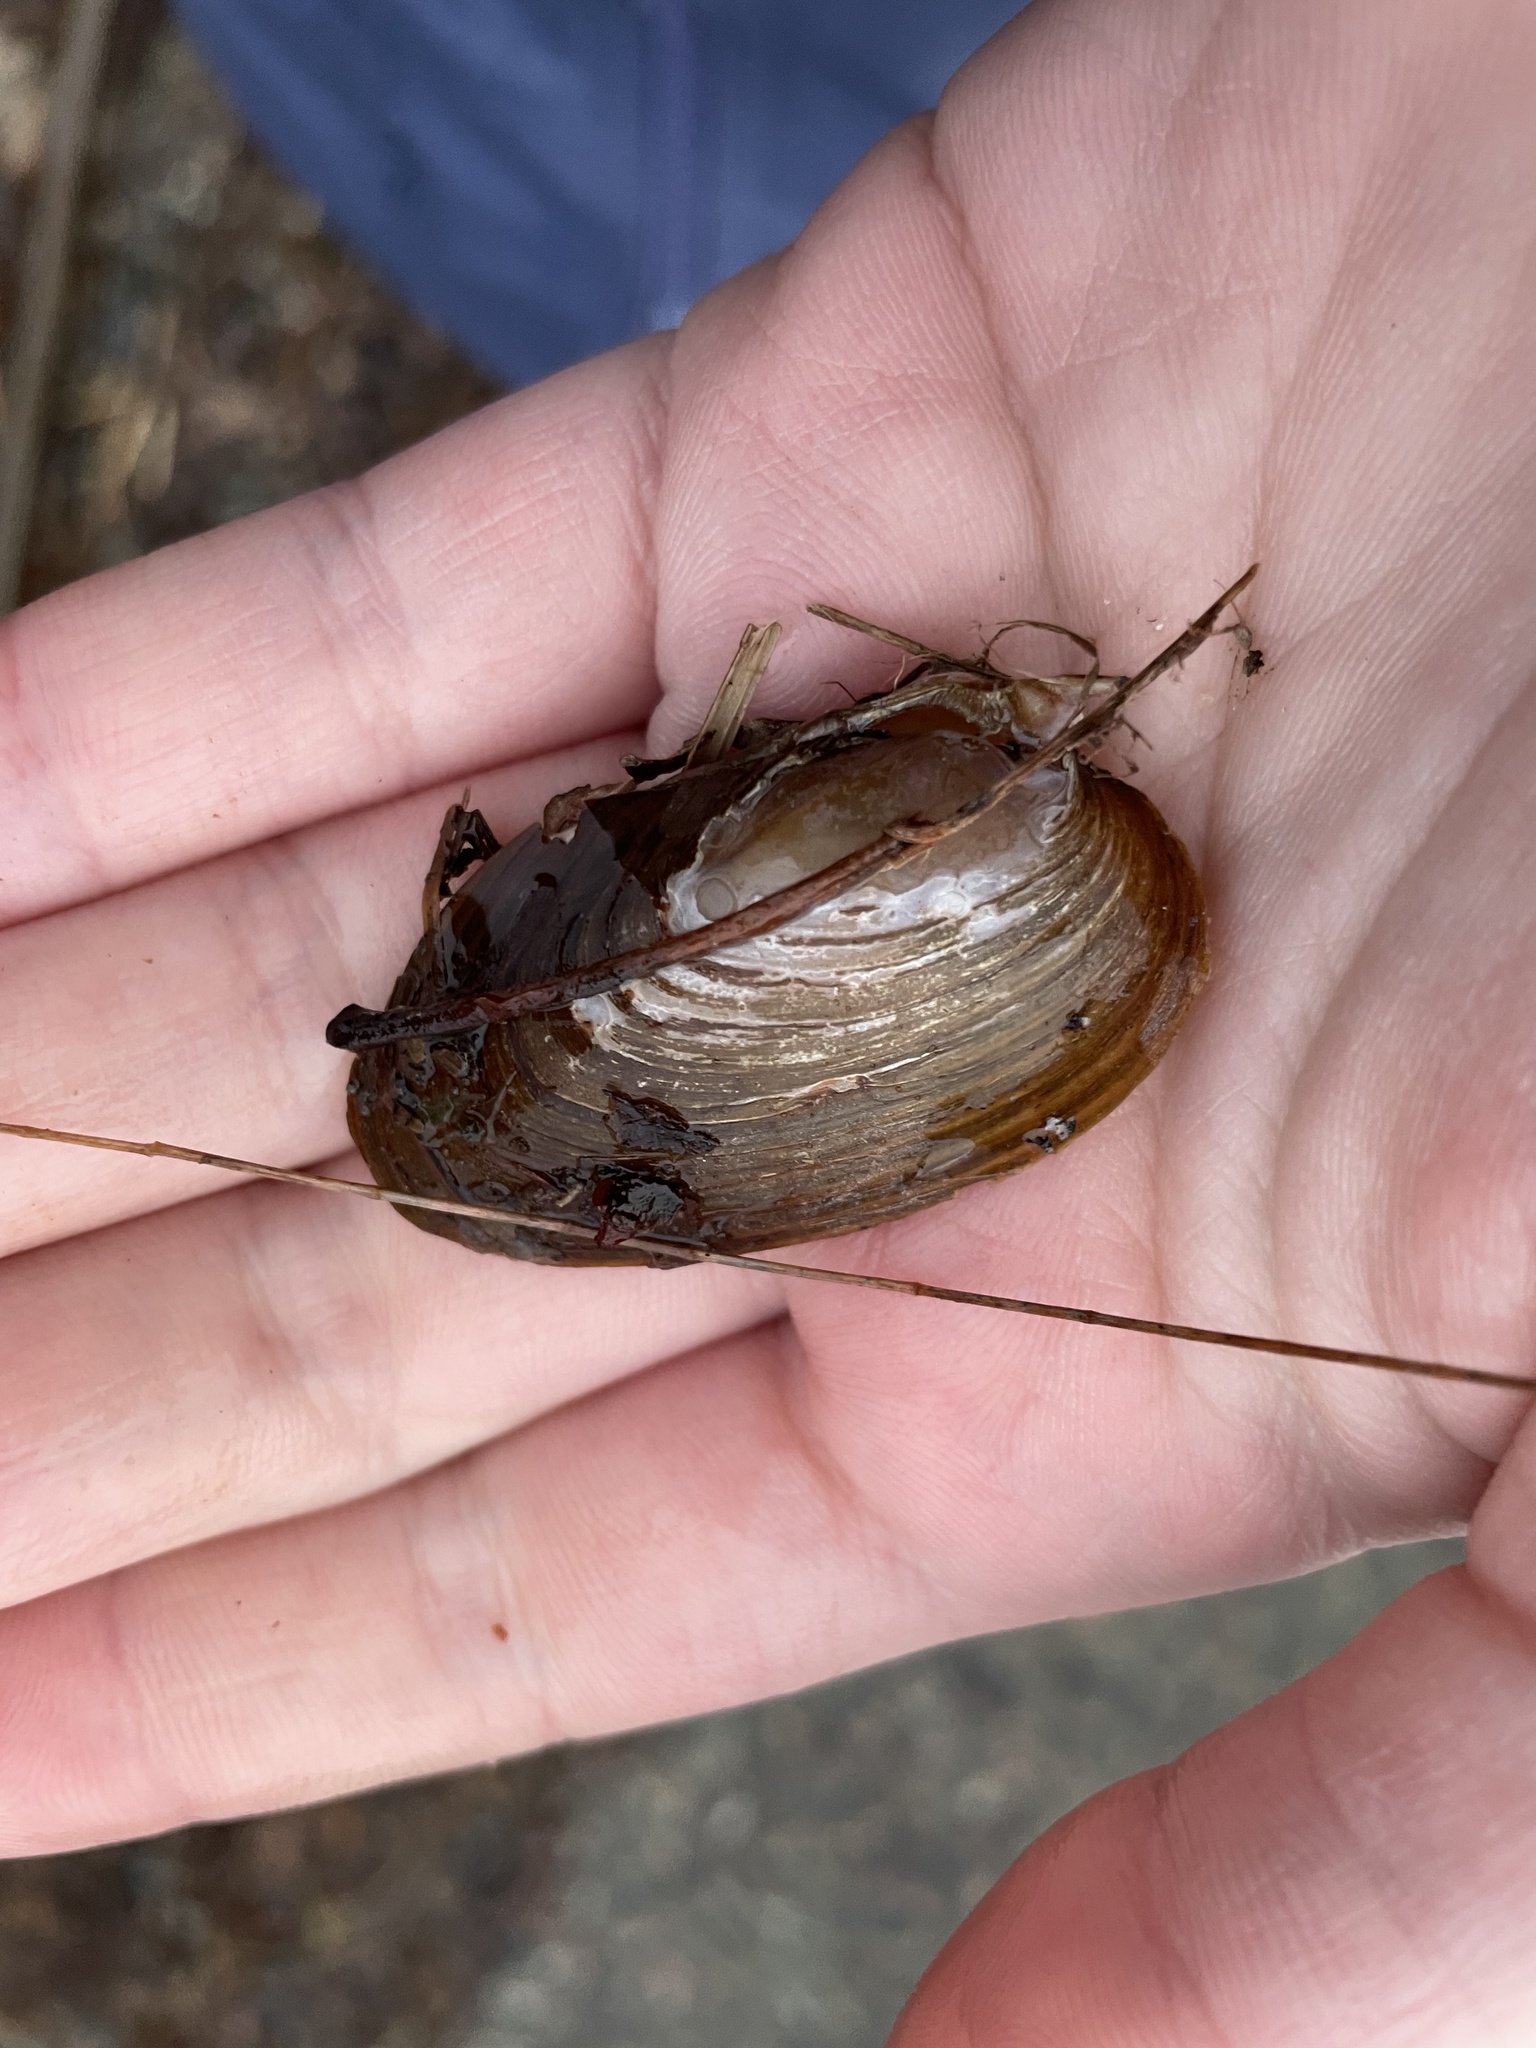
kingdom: Animalia
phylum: Mollusca
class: Bivalvia
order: Unionida
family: Unionidae
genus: Elliptio
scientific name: Elliptio complanata
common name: Eastern elliptio
